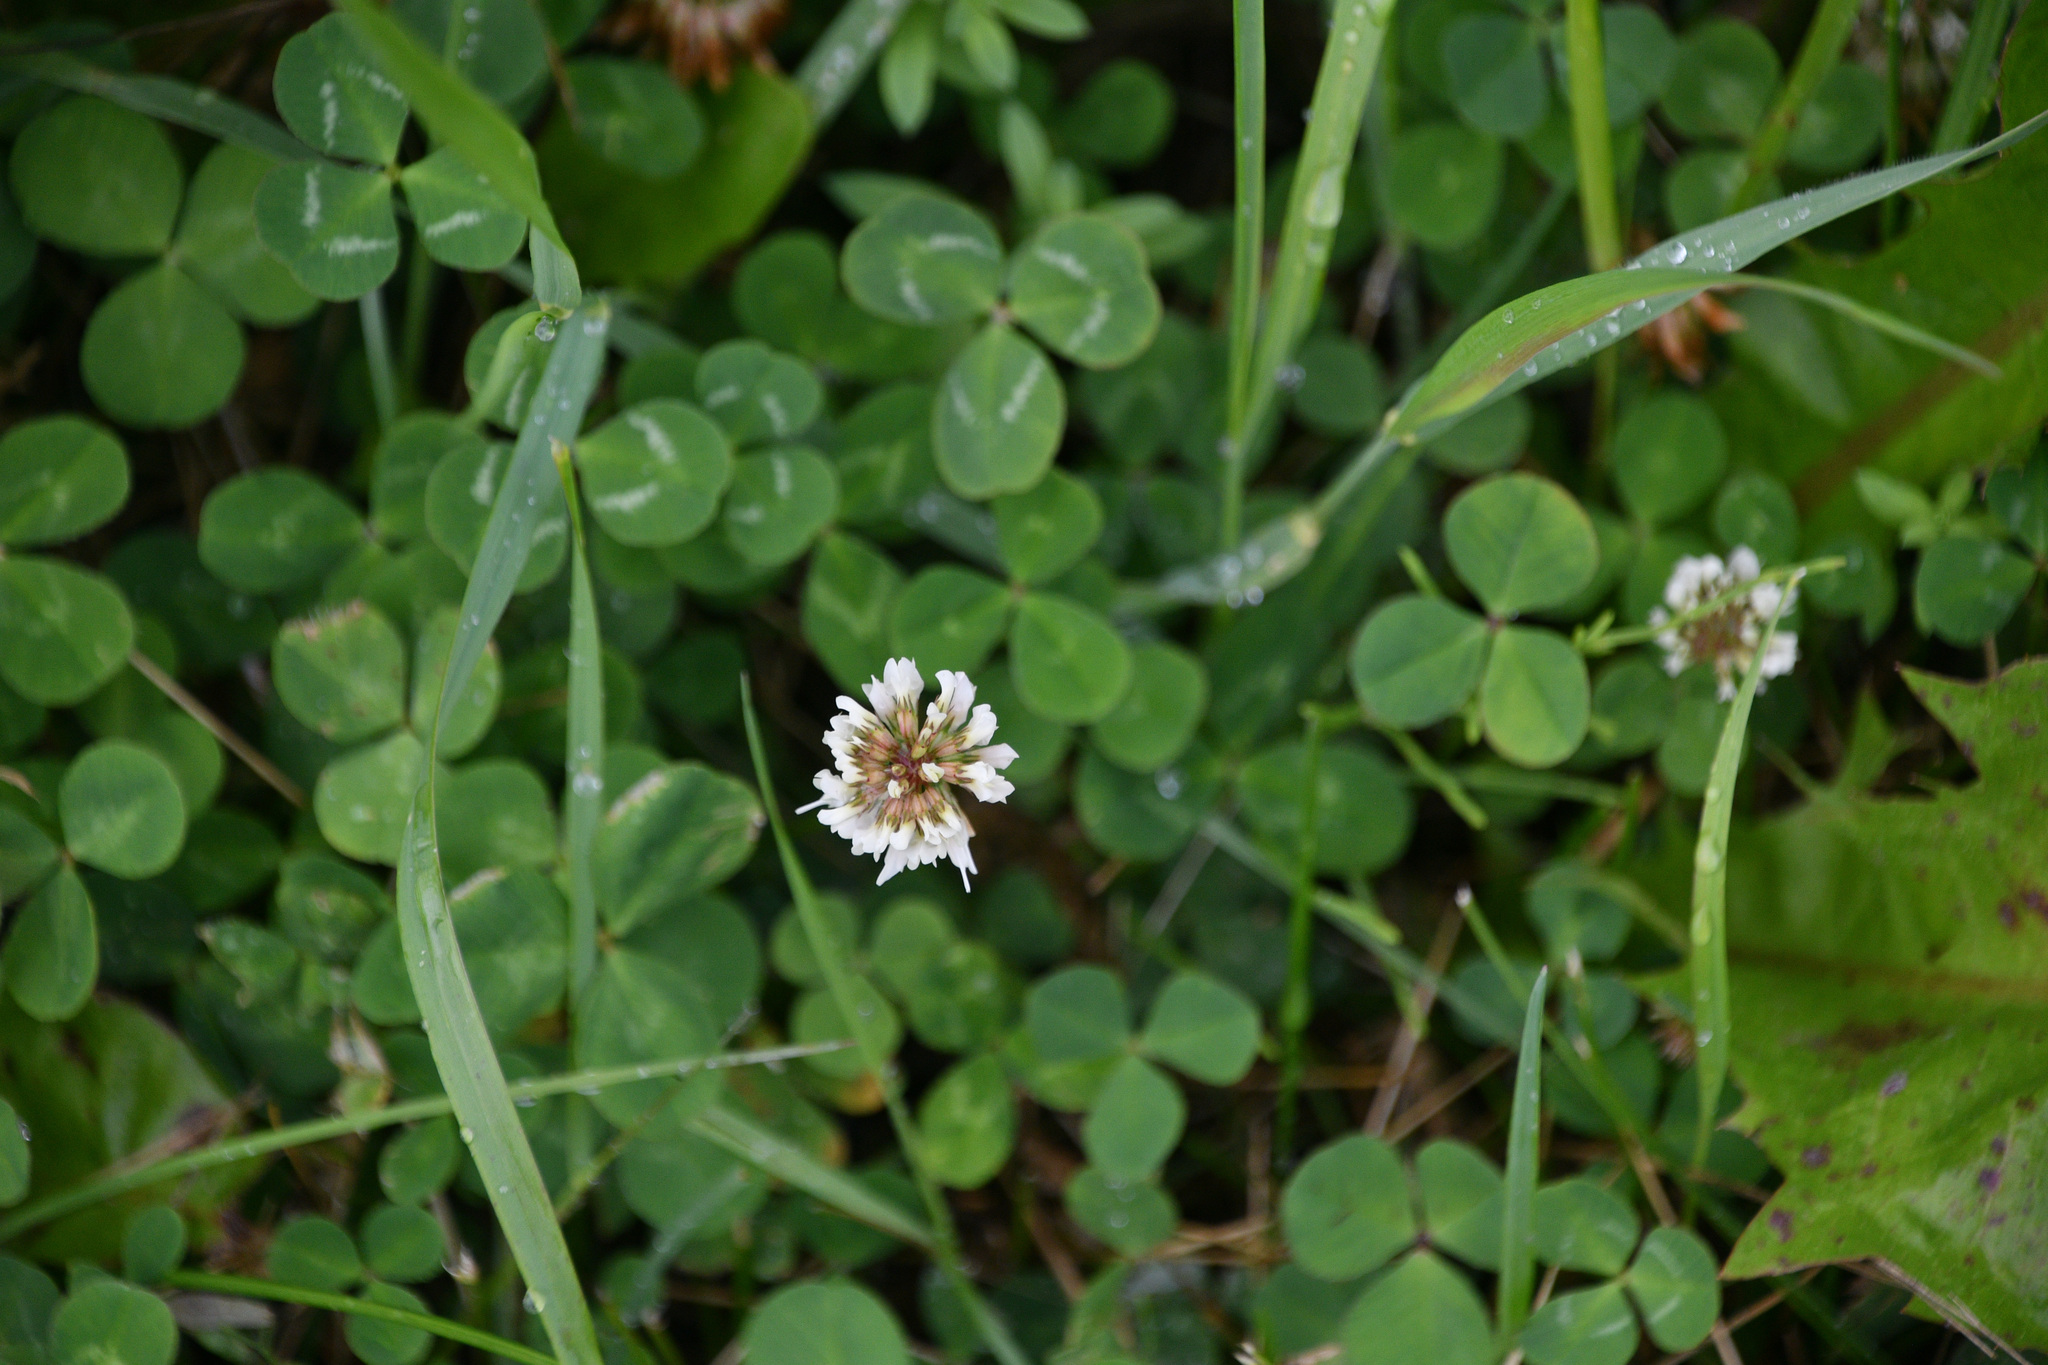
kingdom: Plantae
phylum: Tracheophyta
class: Magnoliopsida
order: Fabales
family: Fabaceae
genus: Trifolium
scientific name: Trifolium repens
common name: White clover
